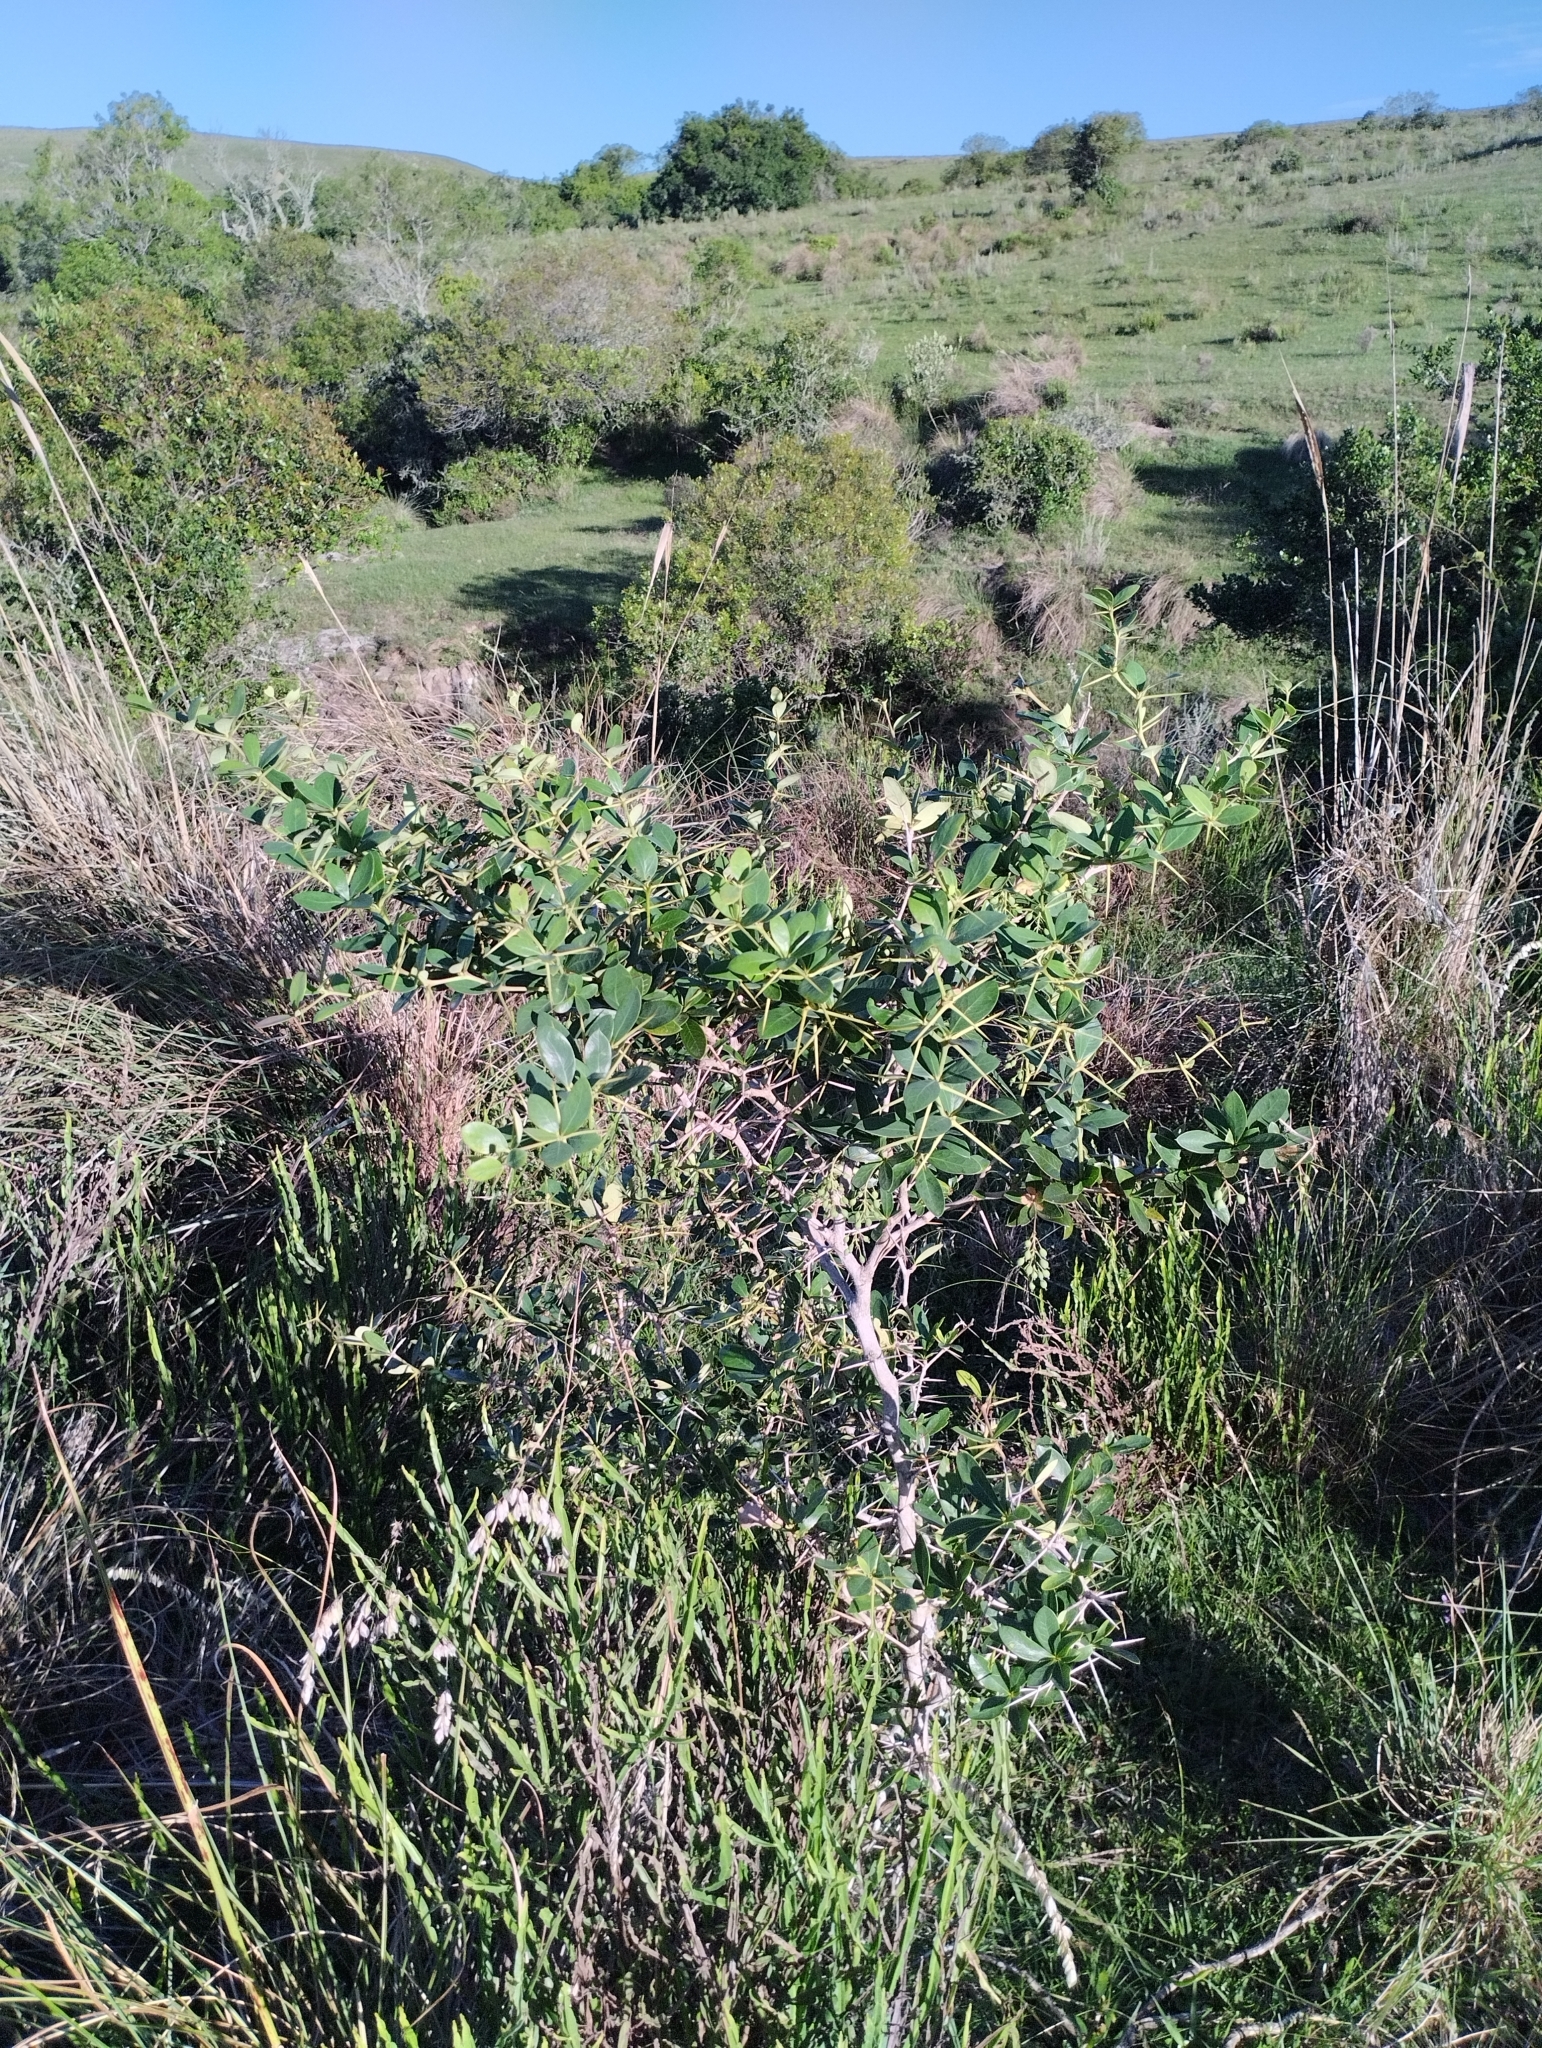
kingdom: Plantae
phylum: Tracheophyta
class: Magnoliopsida
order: Ranunculales
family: Berberidaceae
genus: Berberis
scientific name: Berberis laurina
